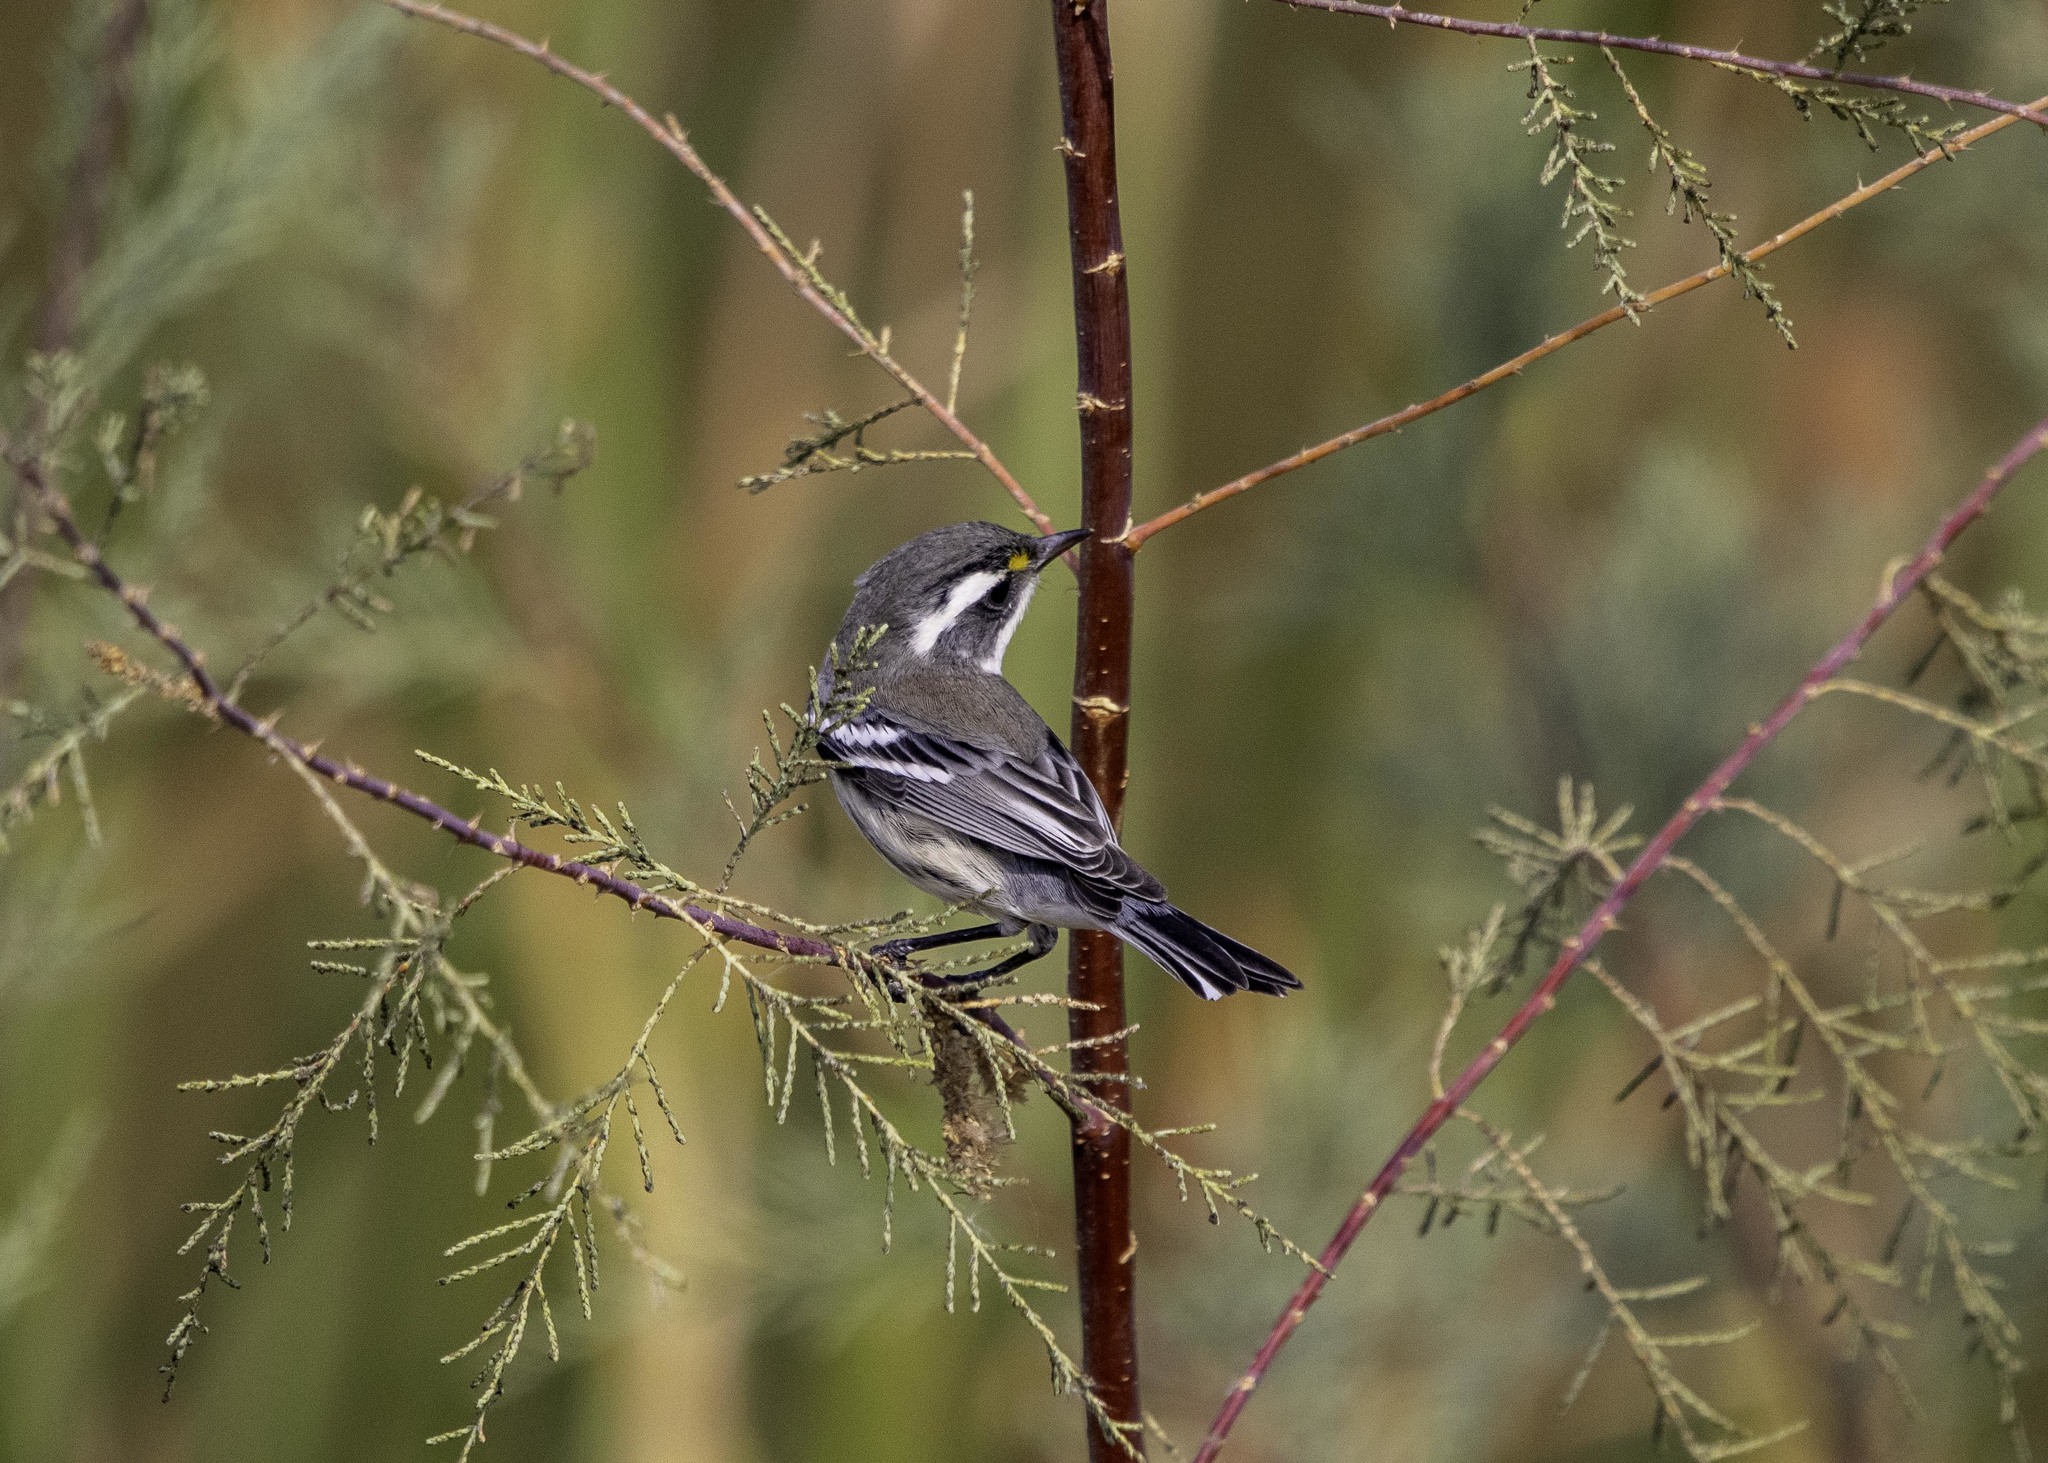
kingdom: Animalia
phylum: Chordata
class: Aves
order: Passeriformes
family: Parulidae
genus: Setophaga
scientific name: Setophaga nigrescens
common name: Black-throated gray warbler
